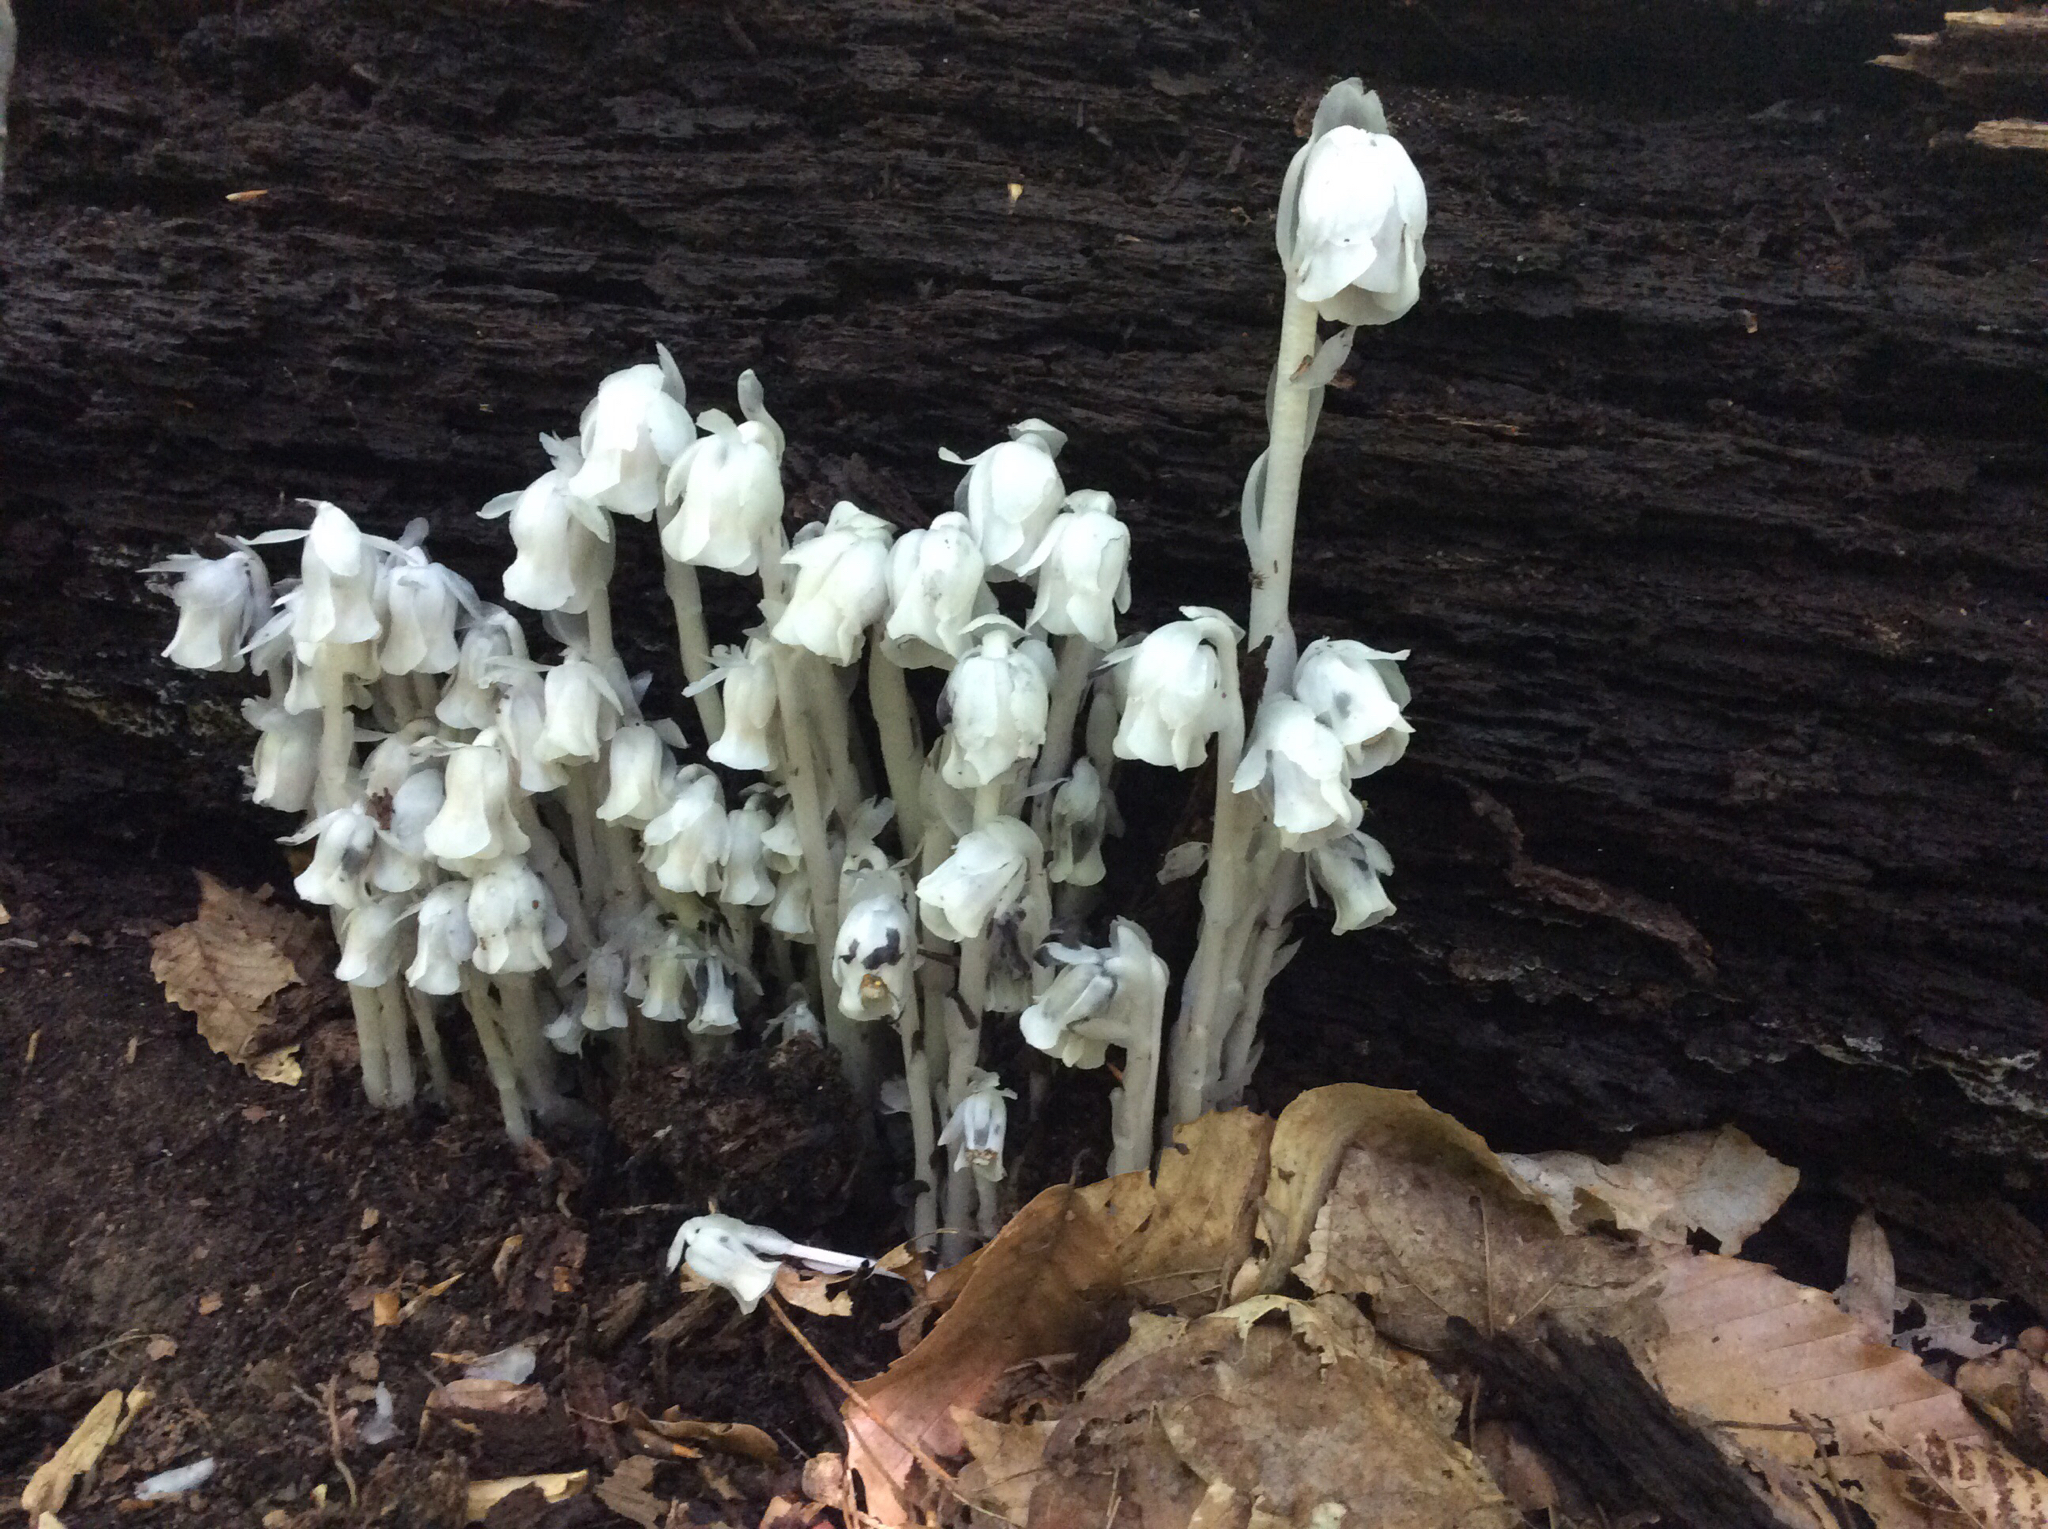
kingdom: Plantae
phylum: Tracheophyta
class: Magnoliopsida
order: Ericales
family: Ericaceae
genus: Monotropa
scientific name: Monotropa uniflora
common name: Convulsion root
